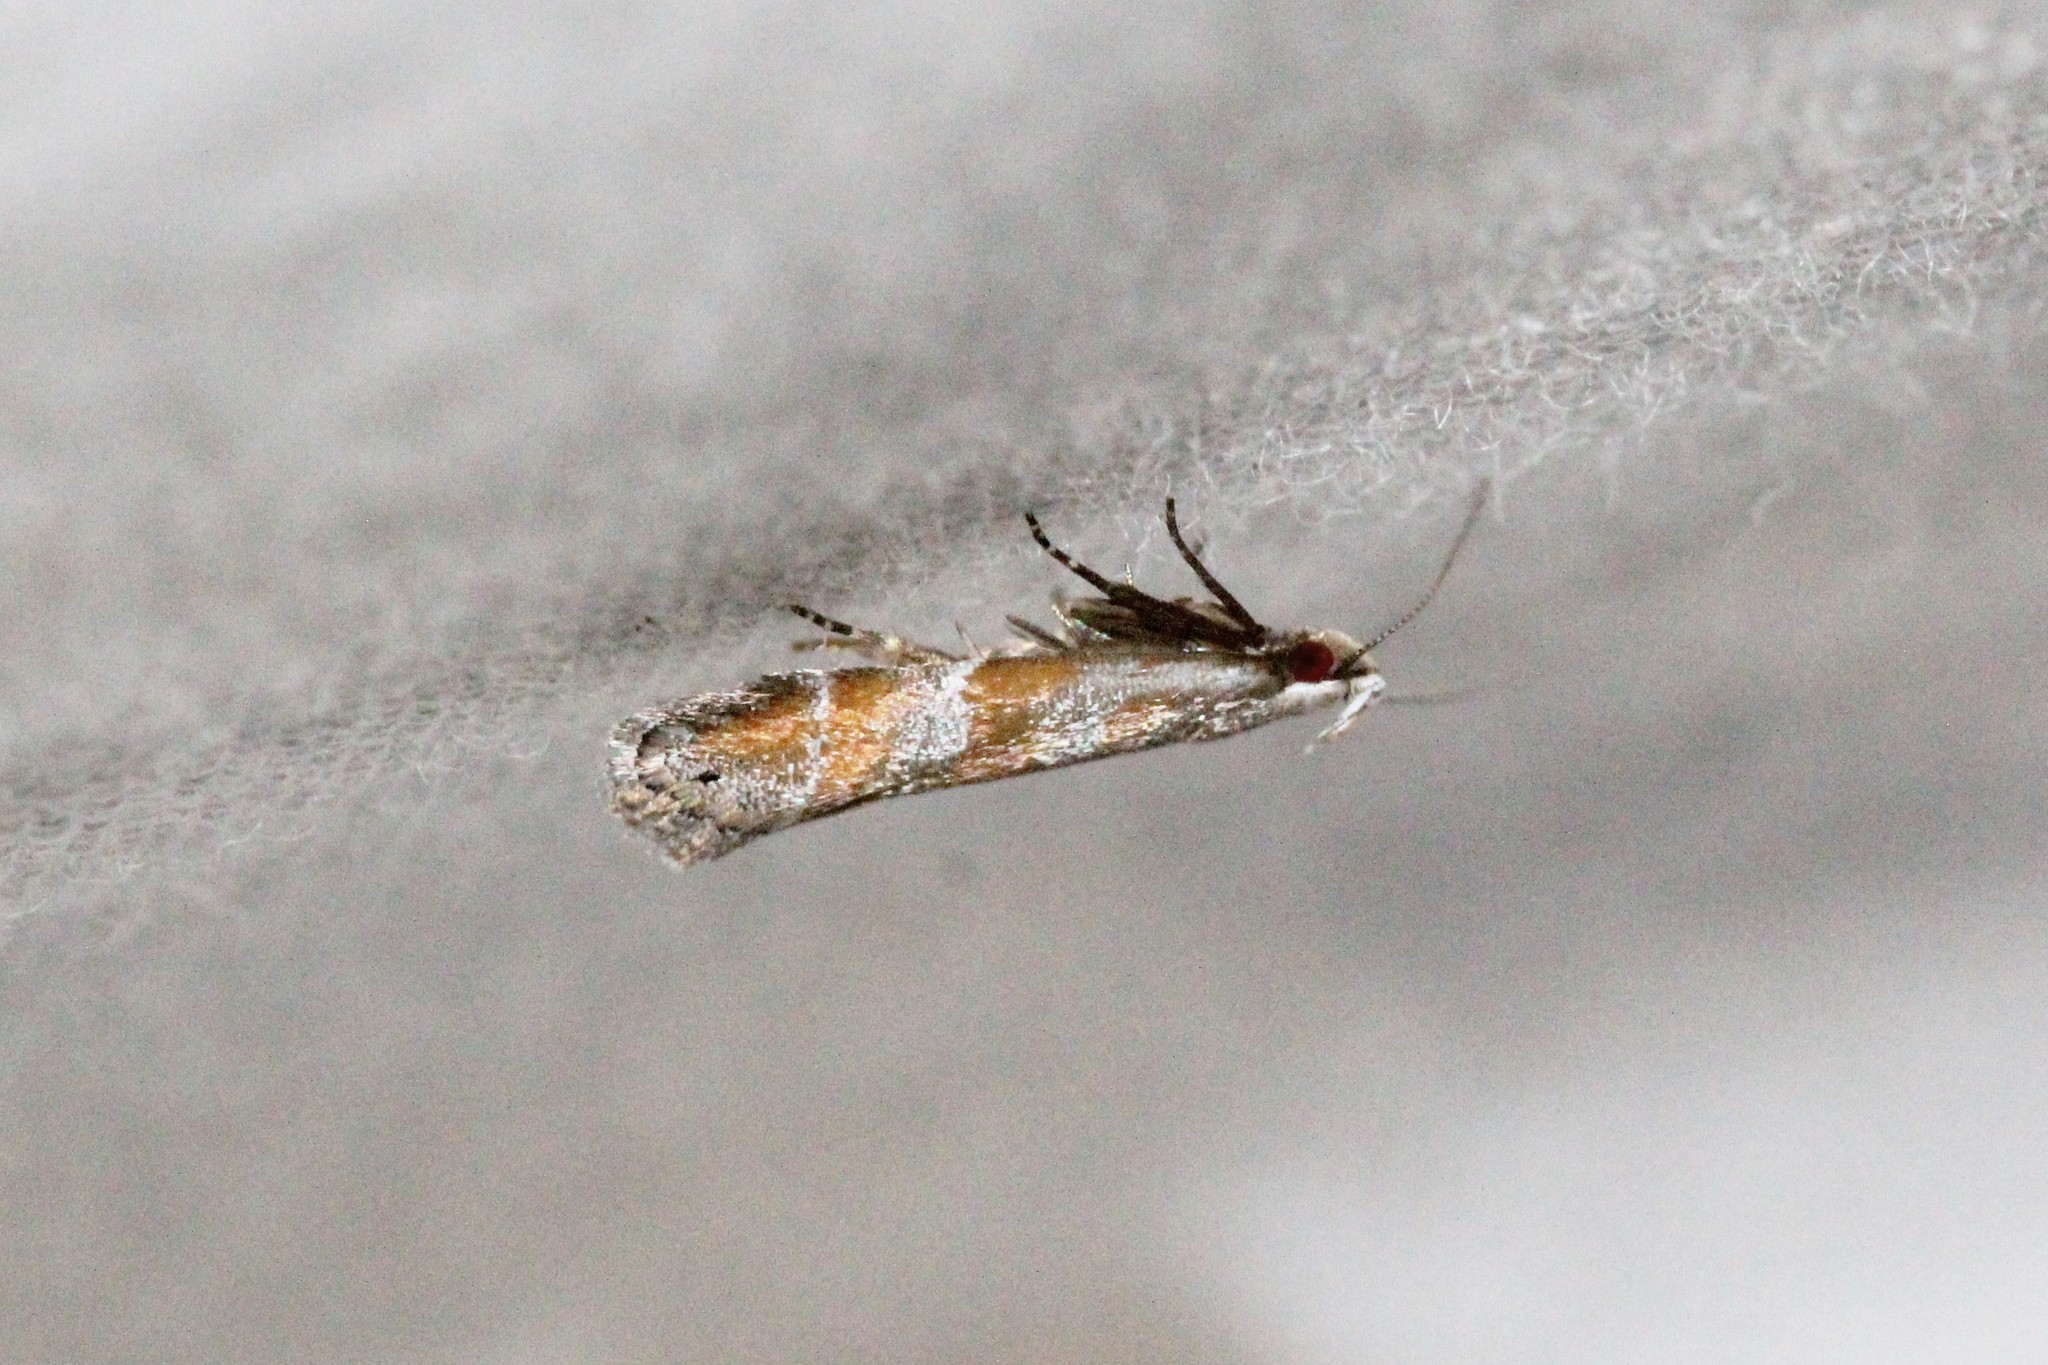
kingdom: Animalia
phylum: Arthropoda
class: Insecta
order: Lepidoptera
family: Gelechiidae
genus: Battaristis
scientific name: Battaristis vittella
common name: Orange stripe-backed moth
